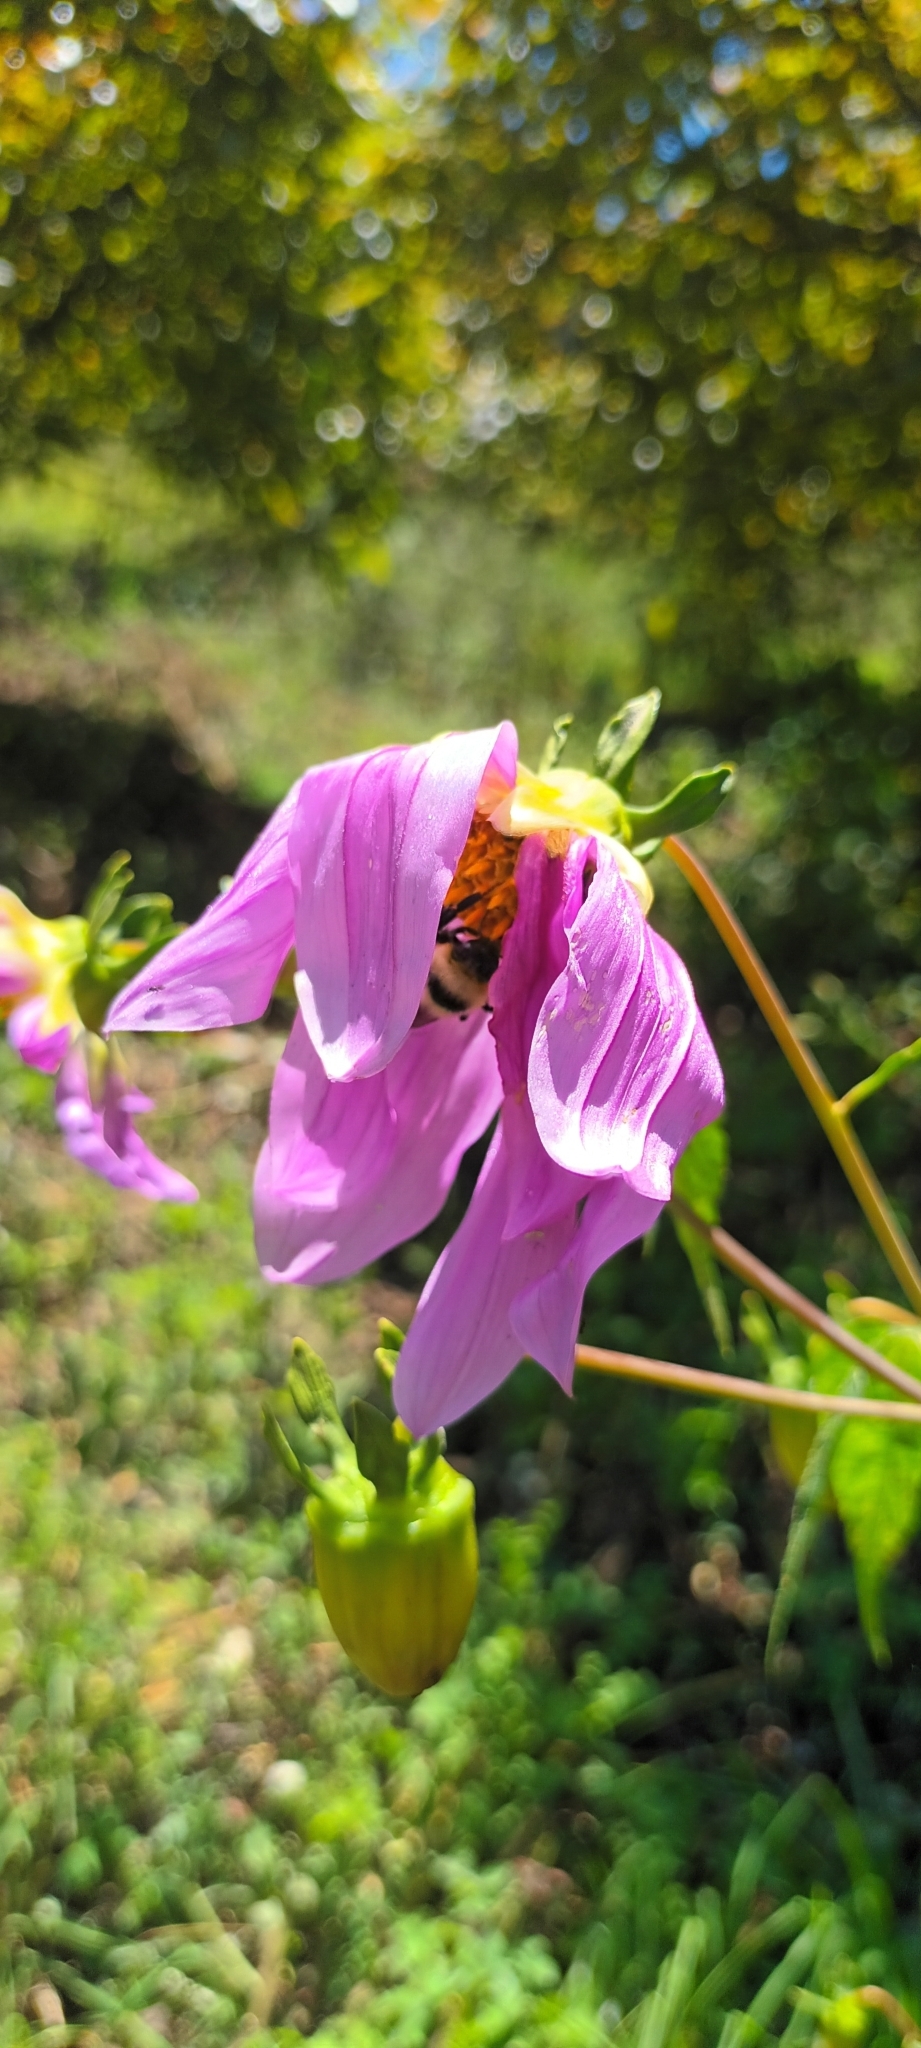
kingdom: Plantae
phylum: Tracheophyta
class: Magnoliopsida
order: Asterales
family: Asteraceae
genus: Dahlia
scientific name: Dahlia imperialis
